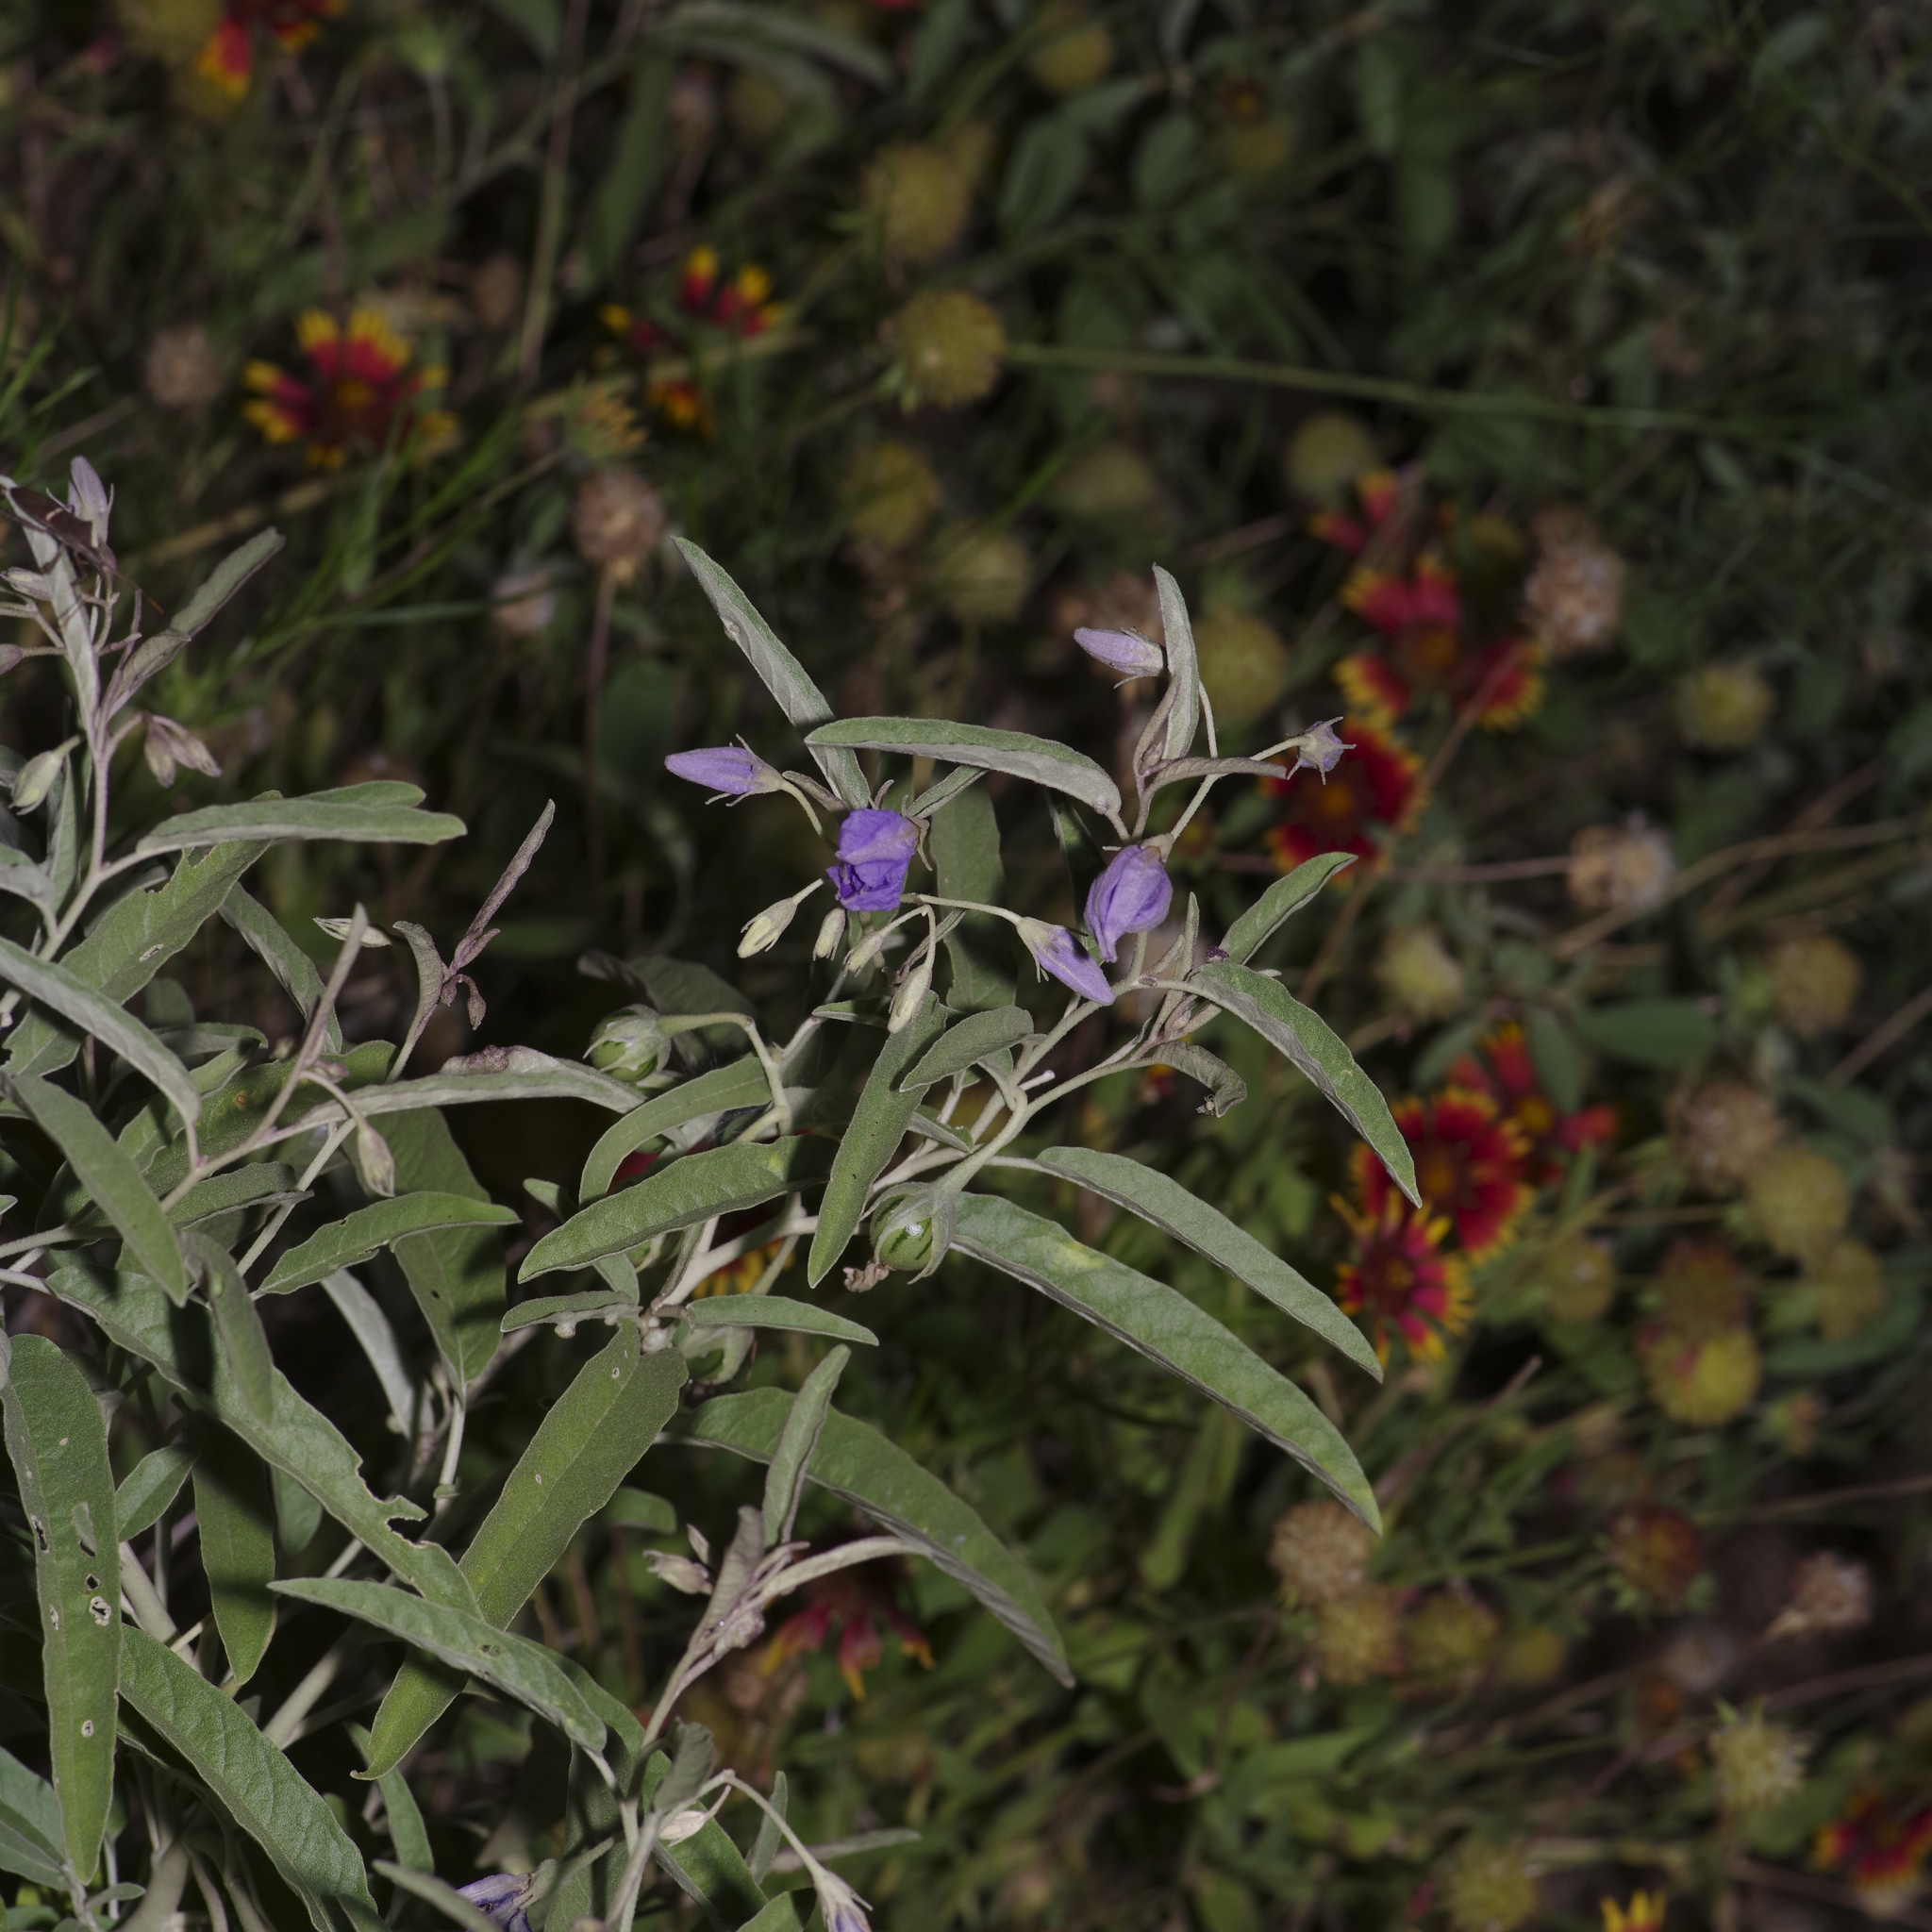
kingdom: Plantae
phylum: Tracheophyta
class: Magnoliopsida
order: Solanales
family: Solanaceae
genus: Solanum
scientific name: Solanum elaeagnifolium
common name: Silverleaf nightshade
